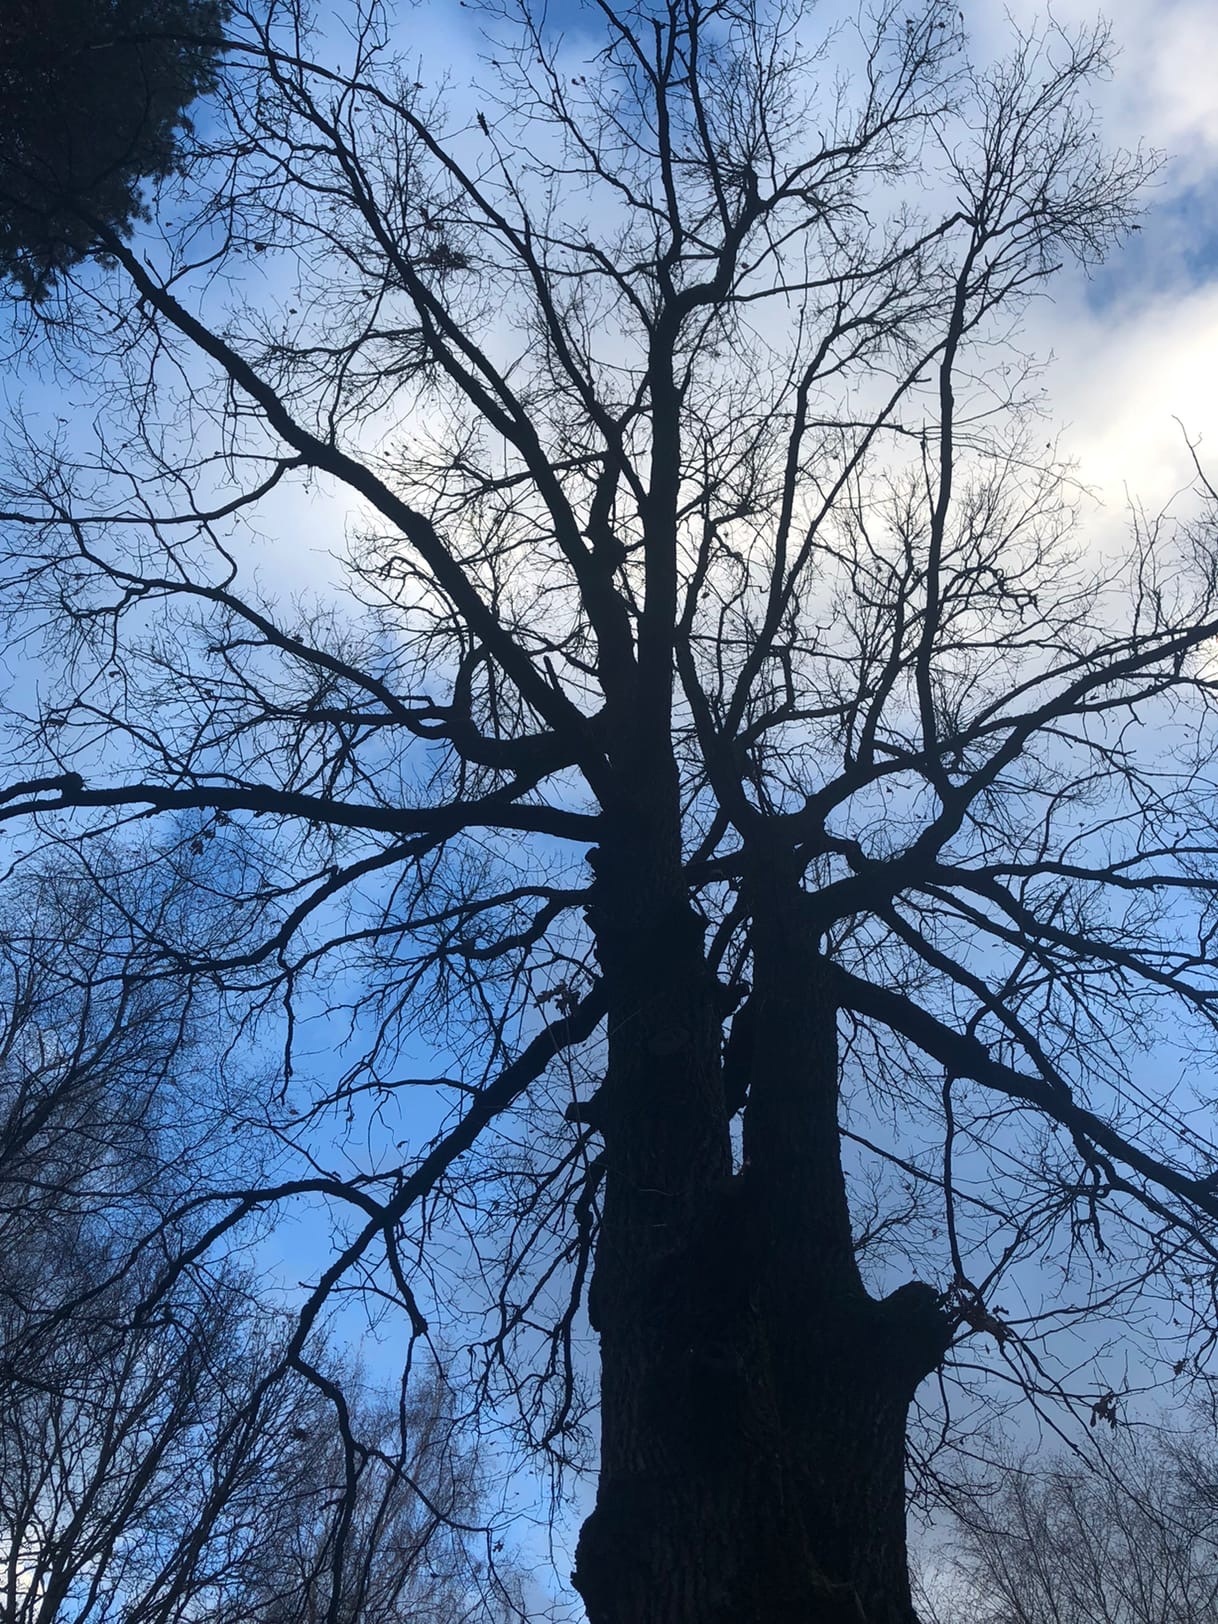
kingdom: Plantae
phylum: Tracheophyta
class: Magnoliopsida
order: Fagales
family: Fagaceae
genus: Quercus
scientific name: Quercus robur
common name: Pedunculate oak
